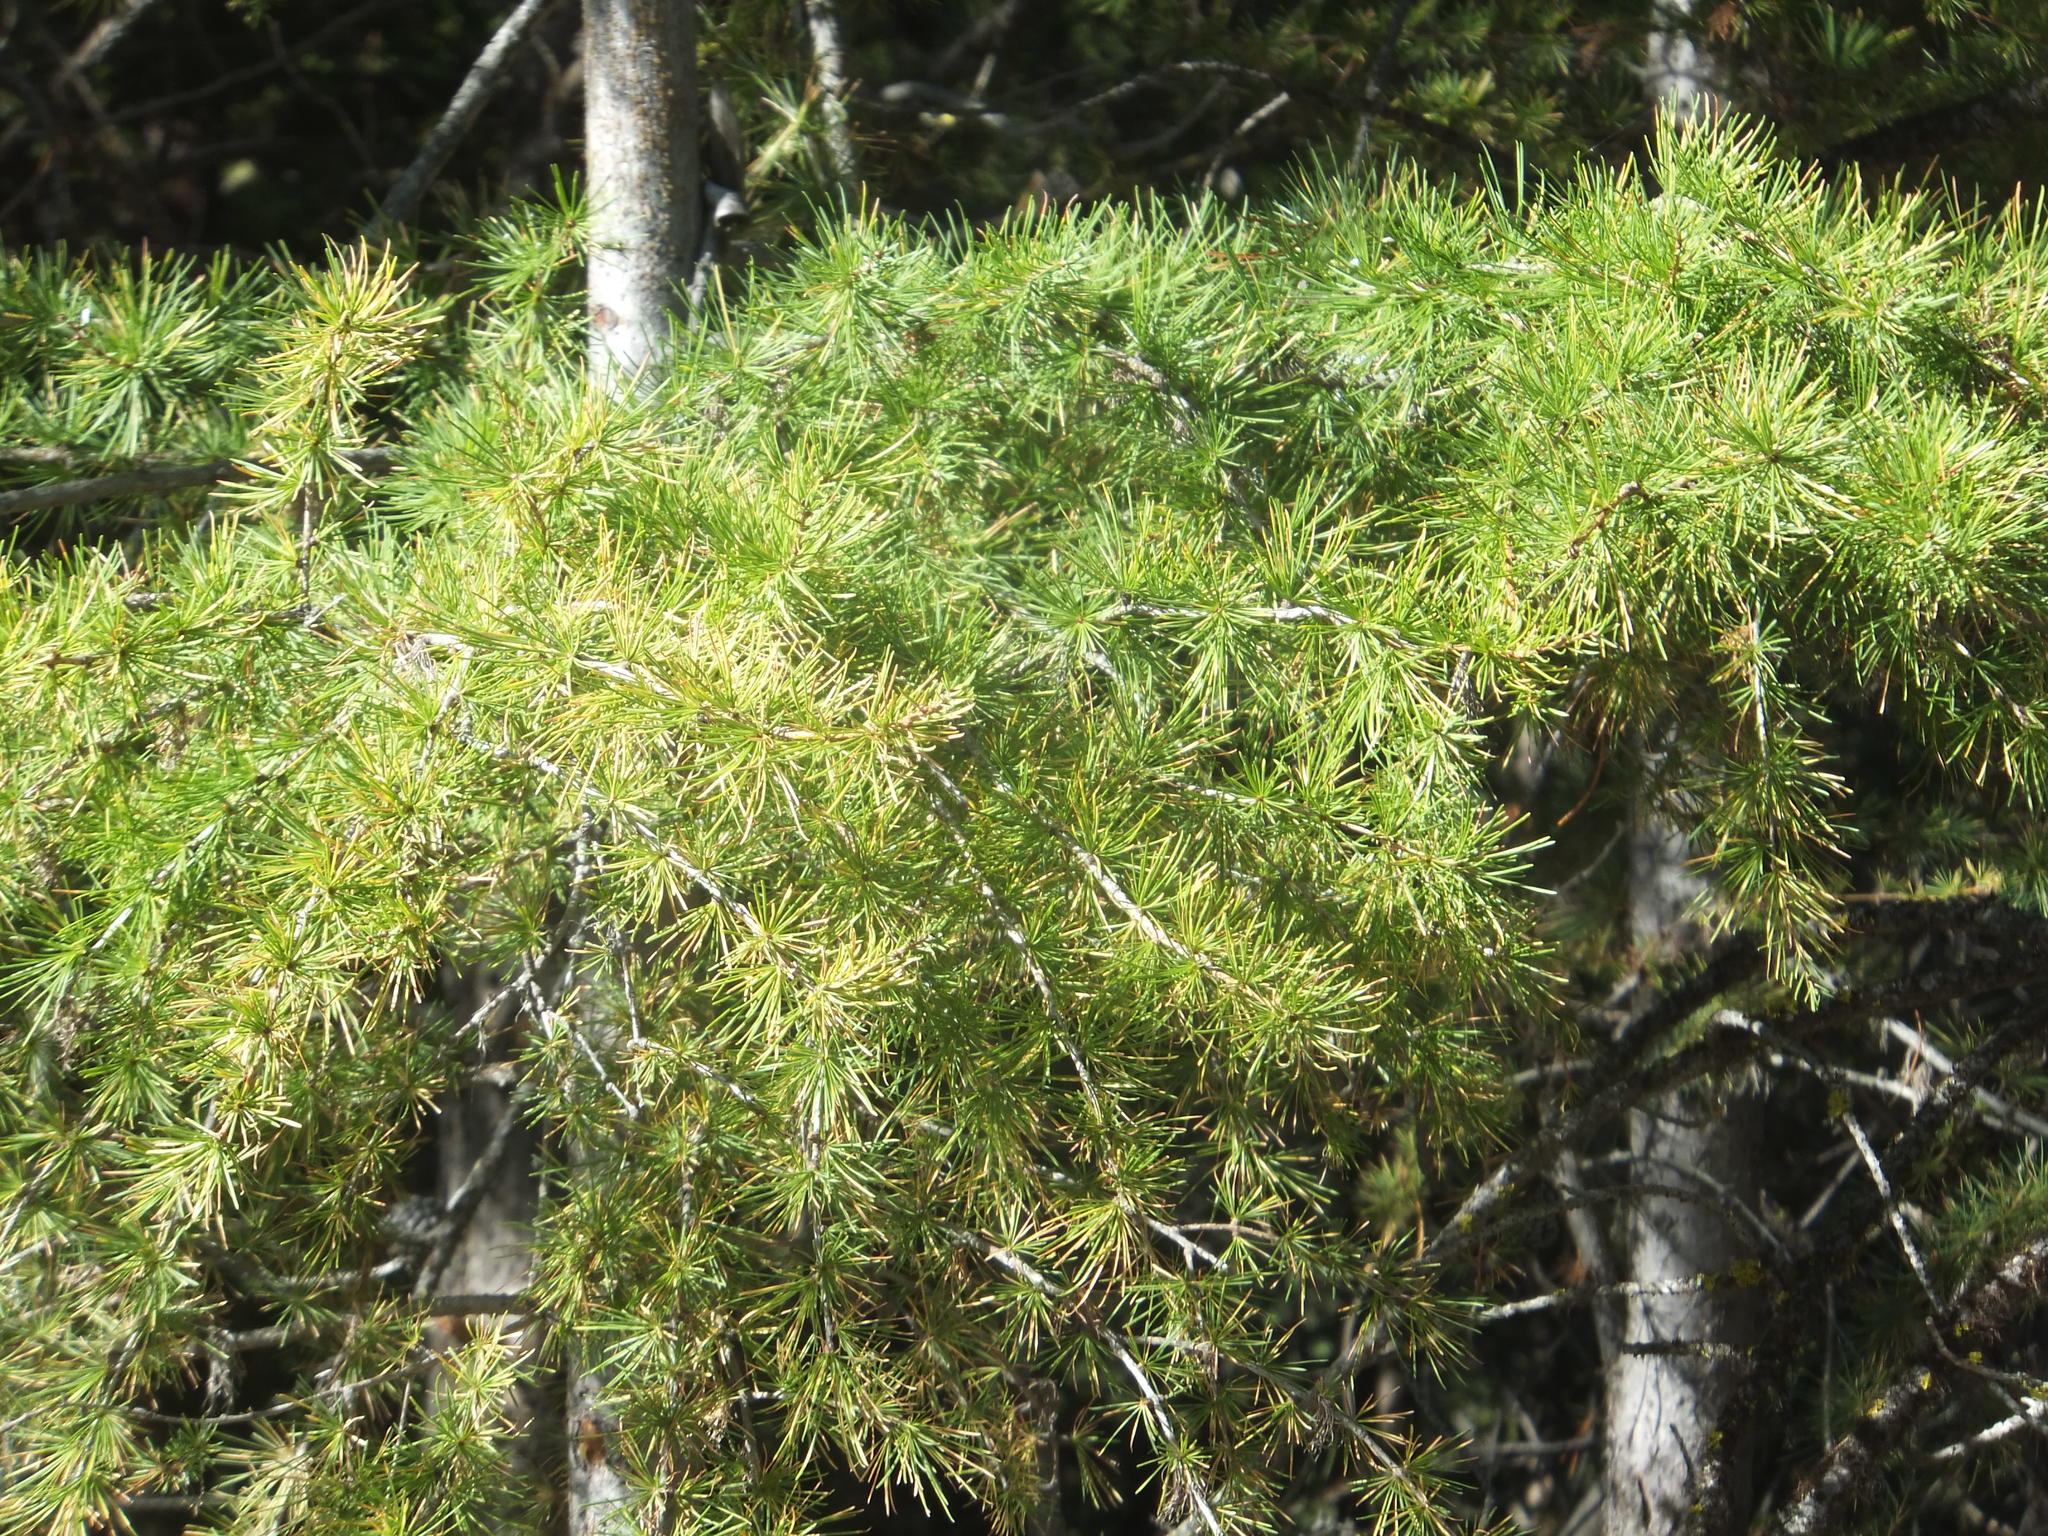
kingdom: Plantae
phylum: Tracheophyta
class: Pinopsida
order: Pinales
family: Pinaceae
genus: Larix
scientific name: Larix occidentalis
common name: Western larch
